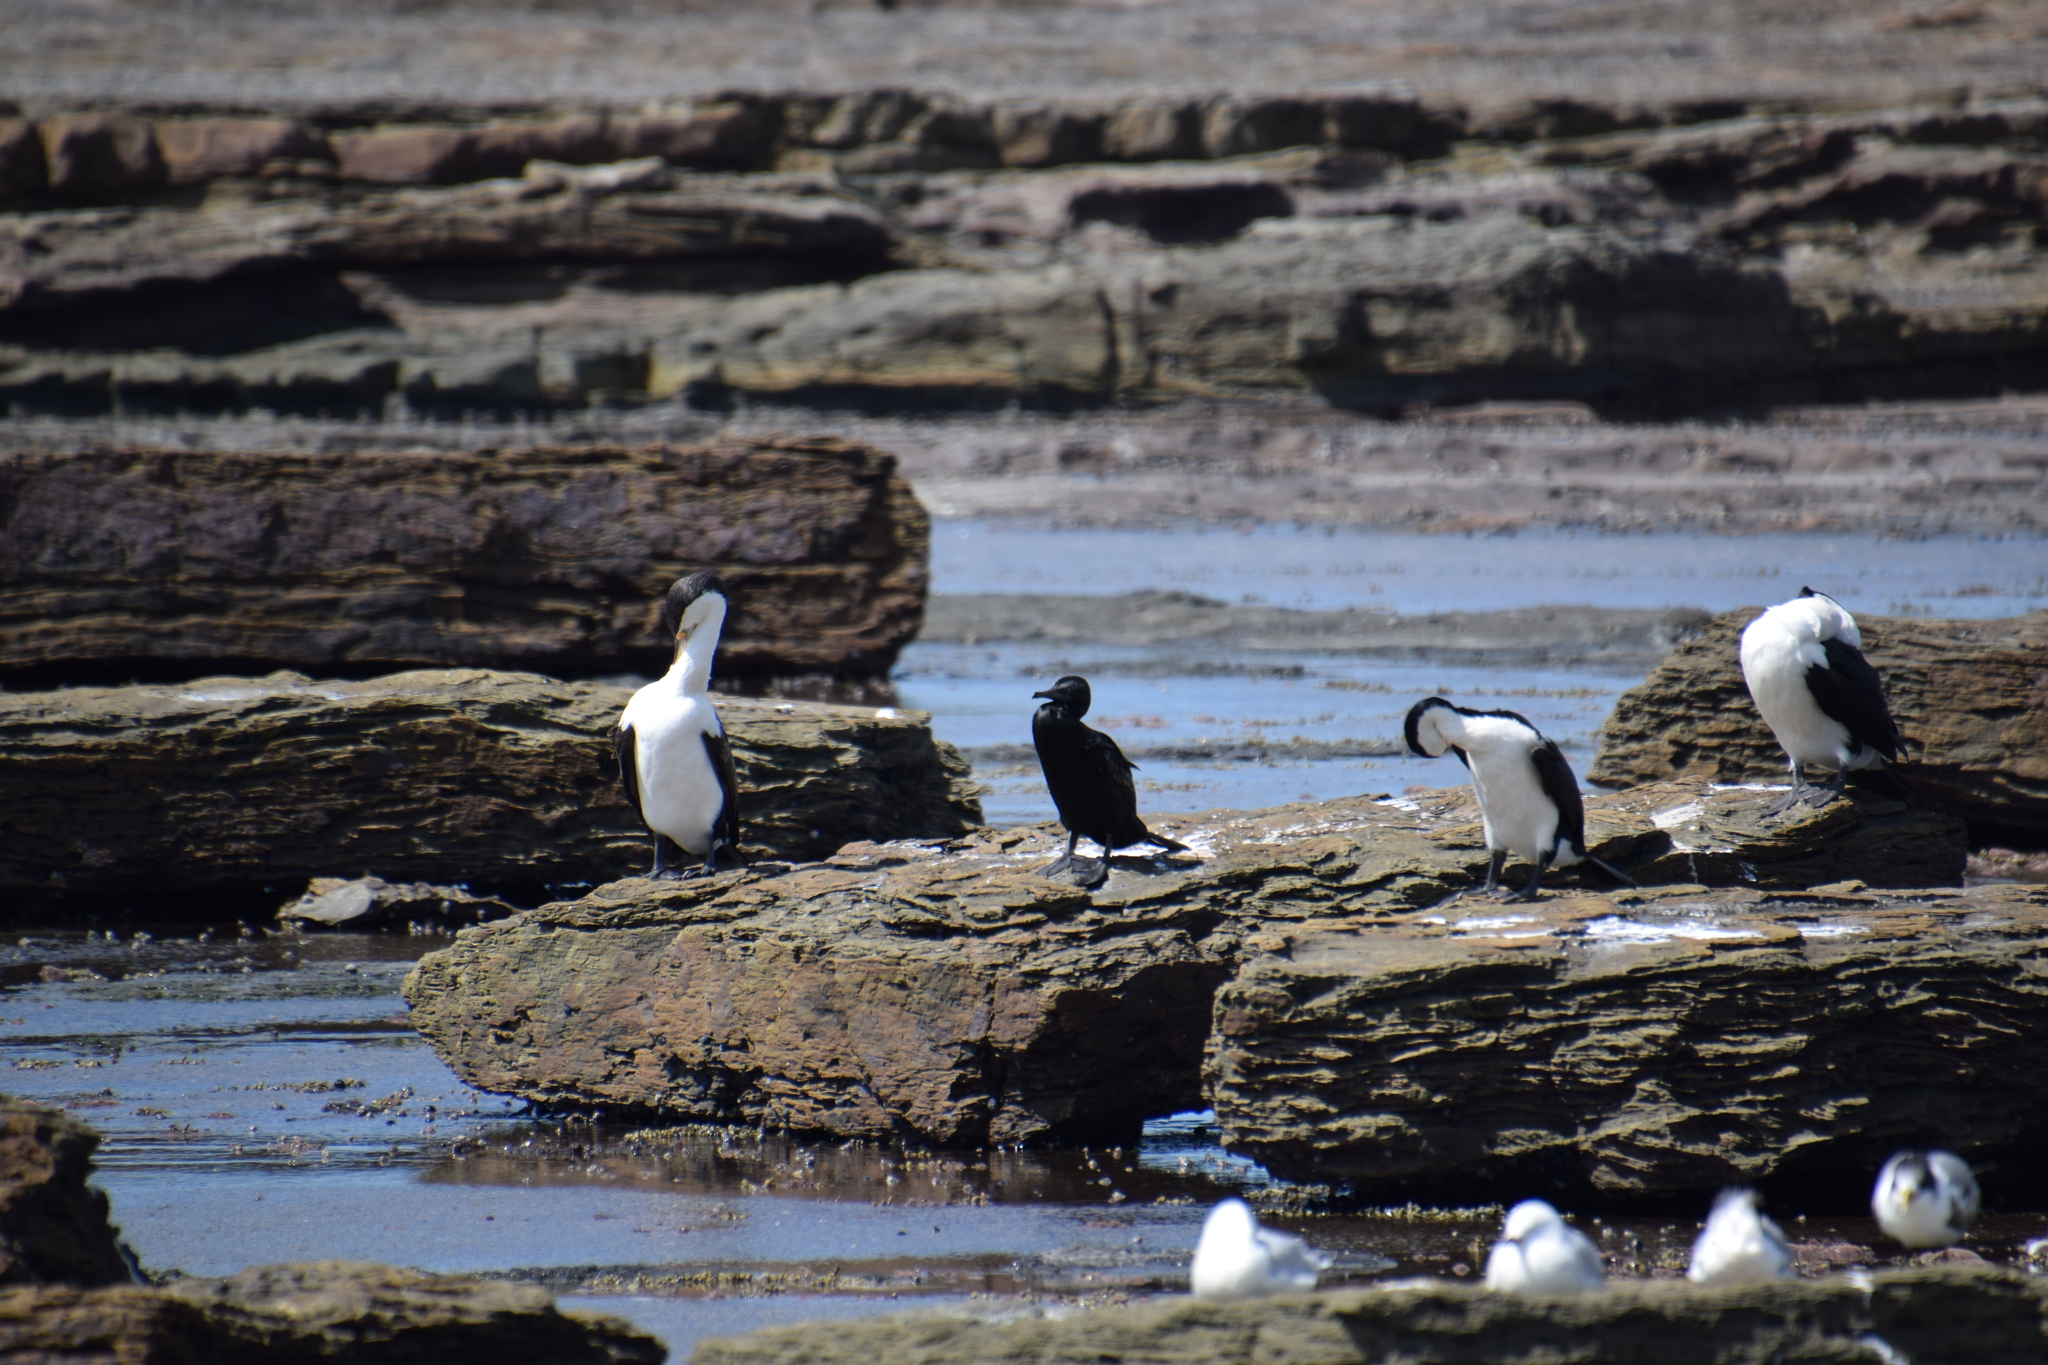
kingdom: Animalia
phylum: Chordata
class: Aves
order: Suliformes
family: Phalacrocoracidae
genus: Phalacrocorax
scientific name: Phalacrocorax varius
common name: Pied cormorant
